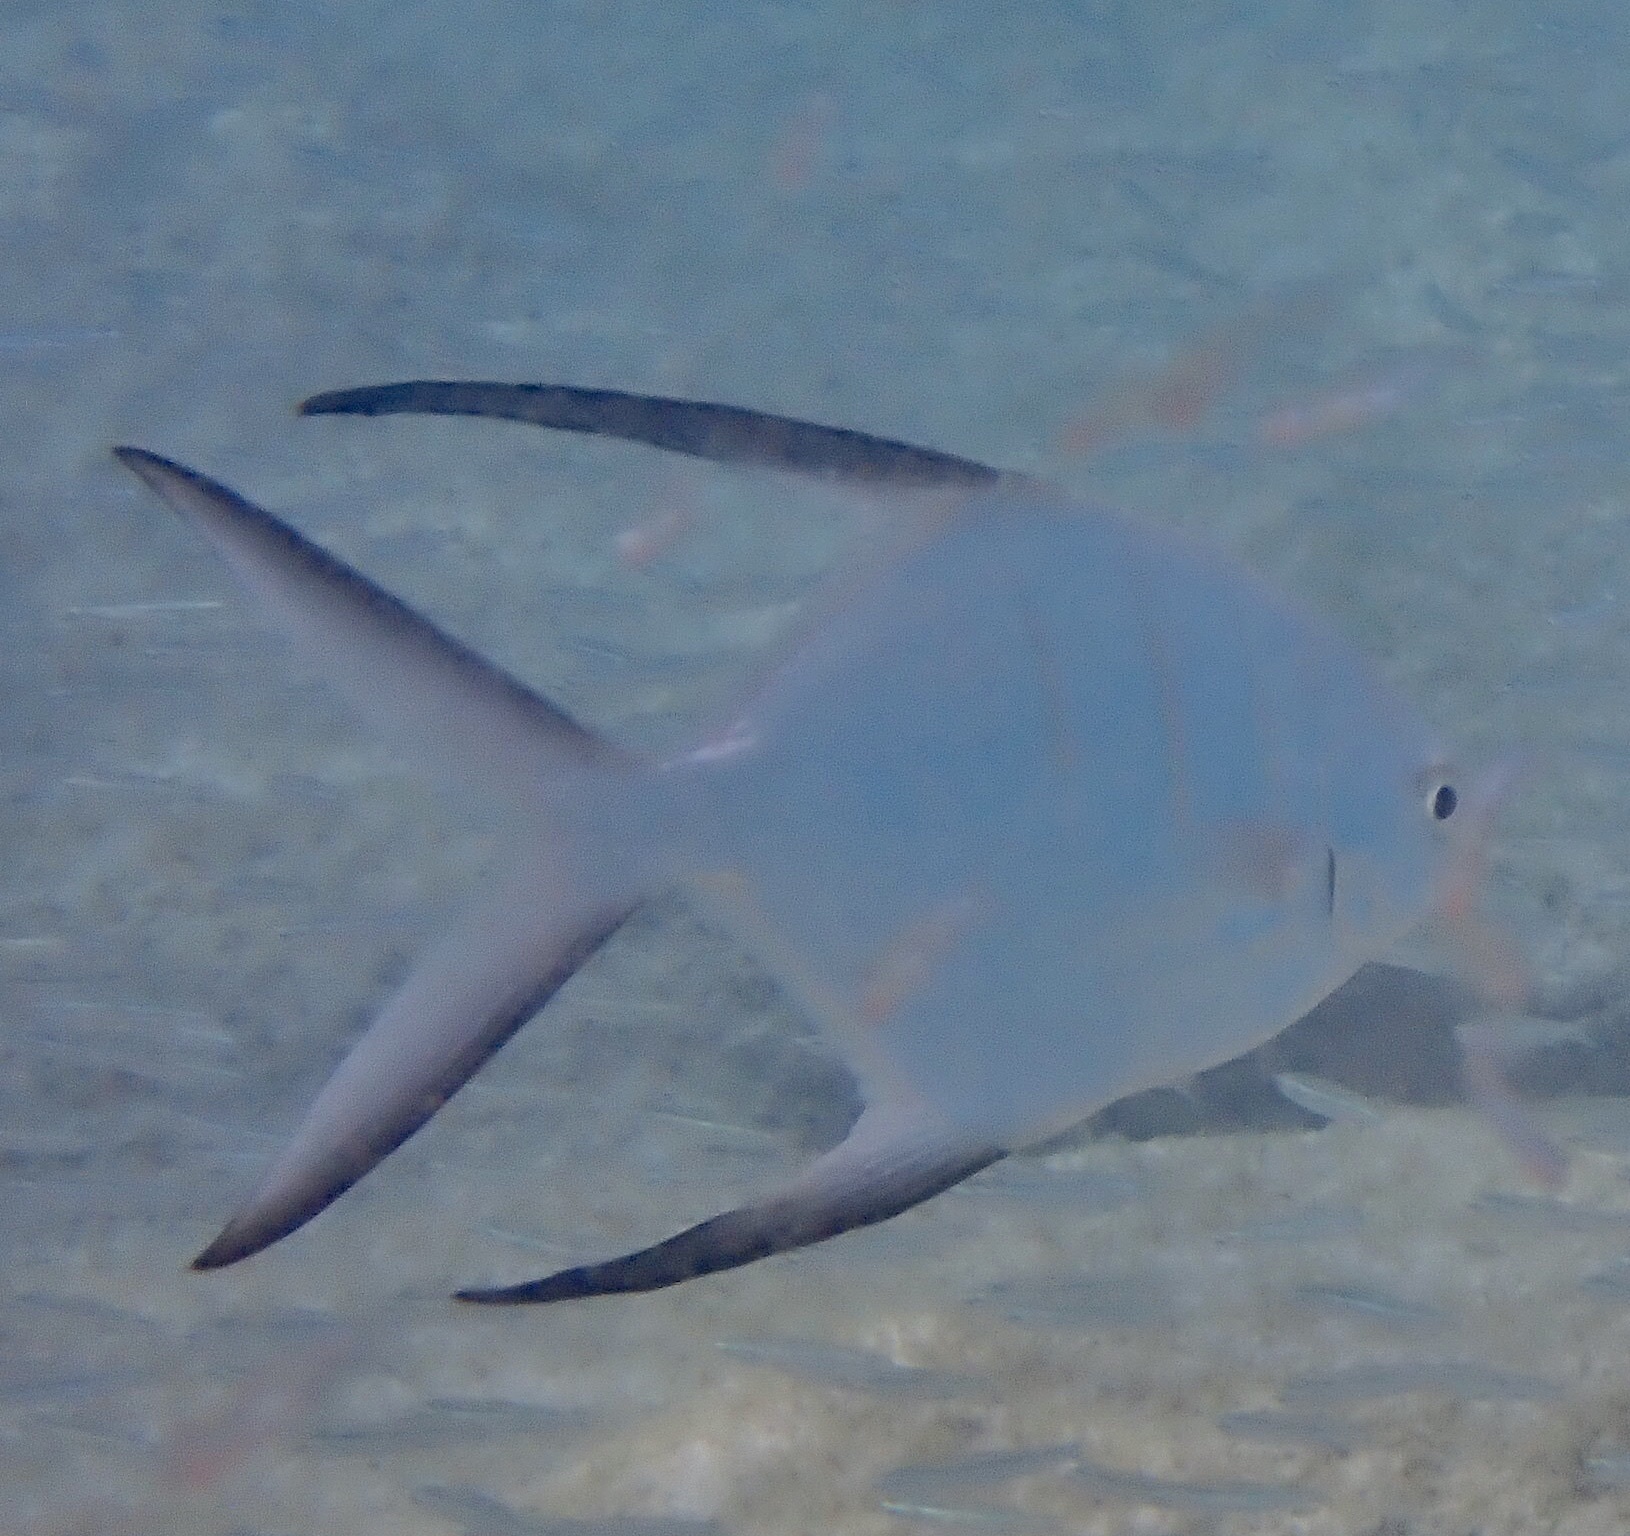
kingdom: Animalia
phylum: Chordata
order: Perciformes
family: Carangidae
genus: Trachinotus
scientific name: Trachinotus goodei
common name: Palometa
